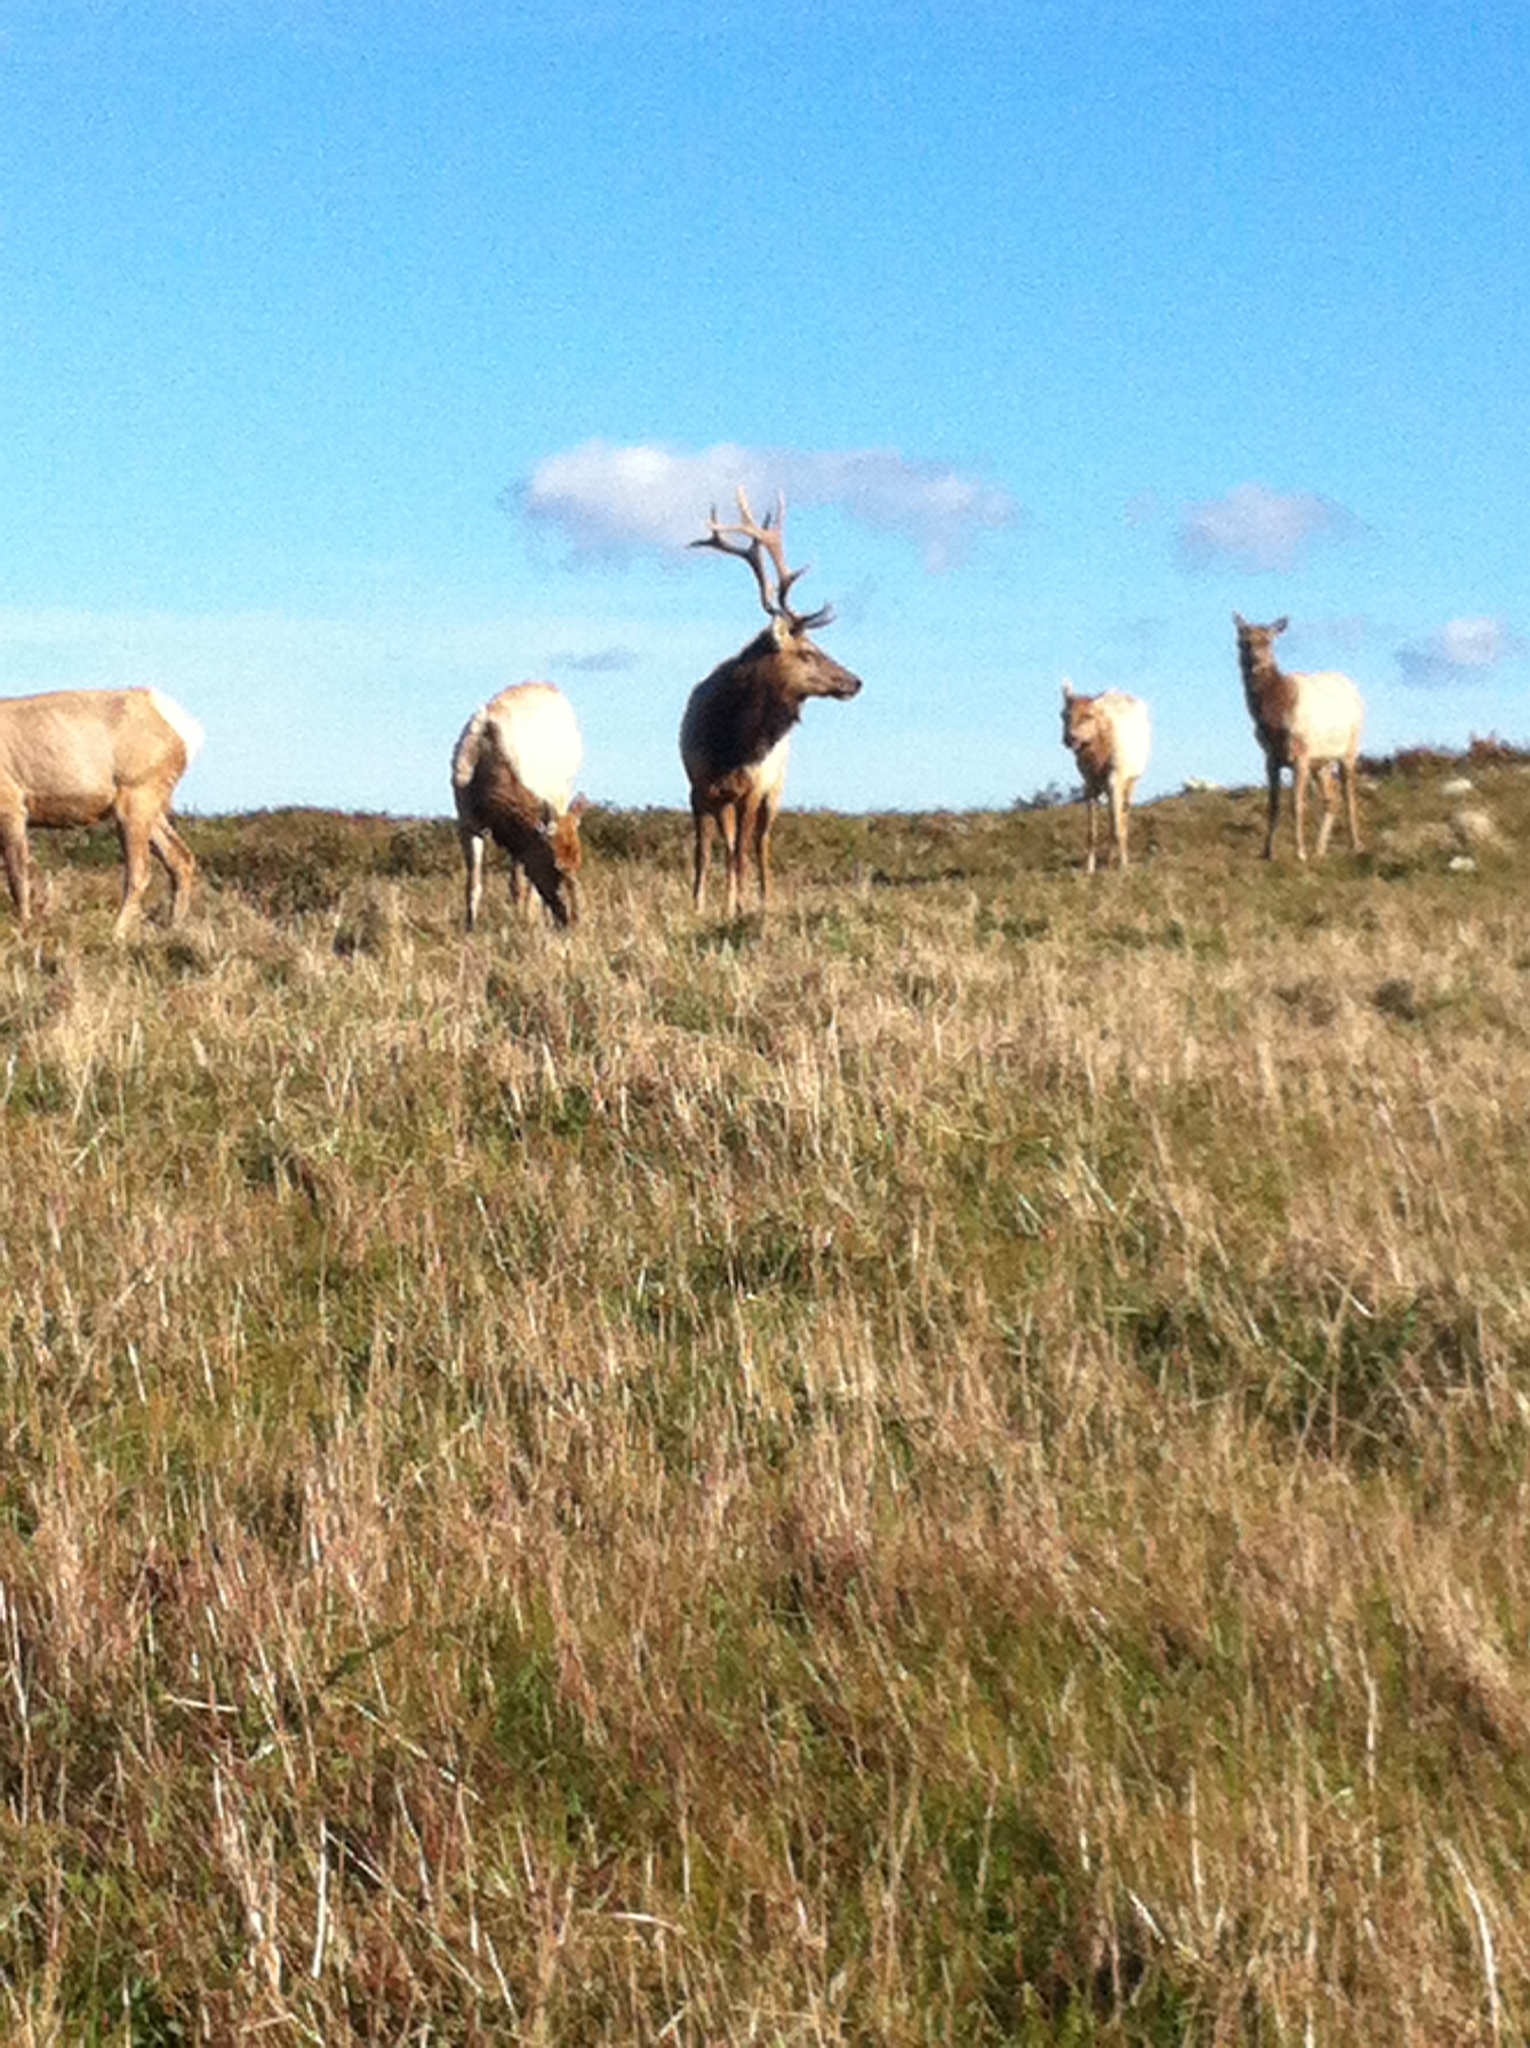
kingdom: Animalia
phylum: Chordata
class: Mammalia
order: Artiodactyla
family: Cervidae
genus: Cervus
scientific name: Cervus elaphus
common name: Red deer
